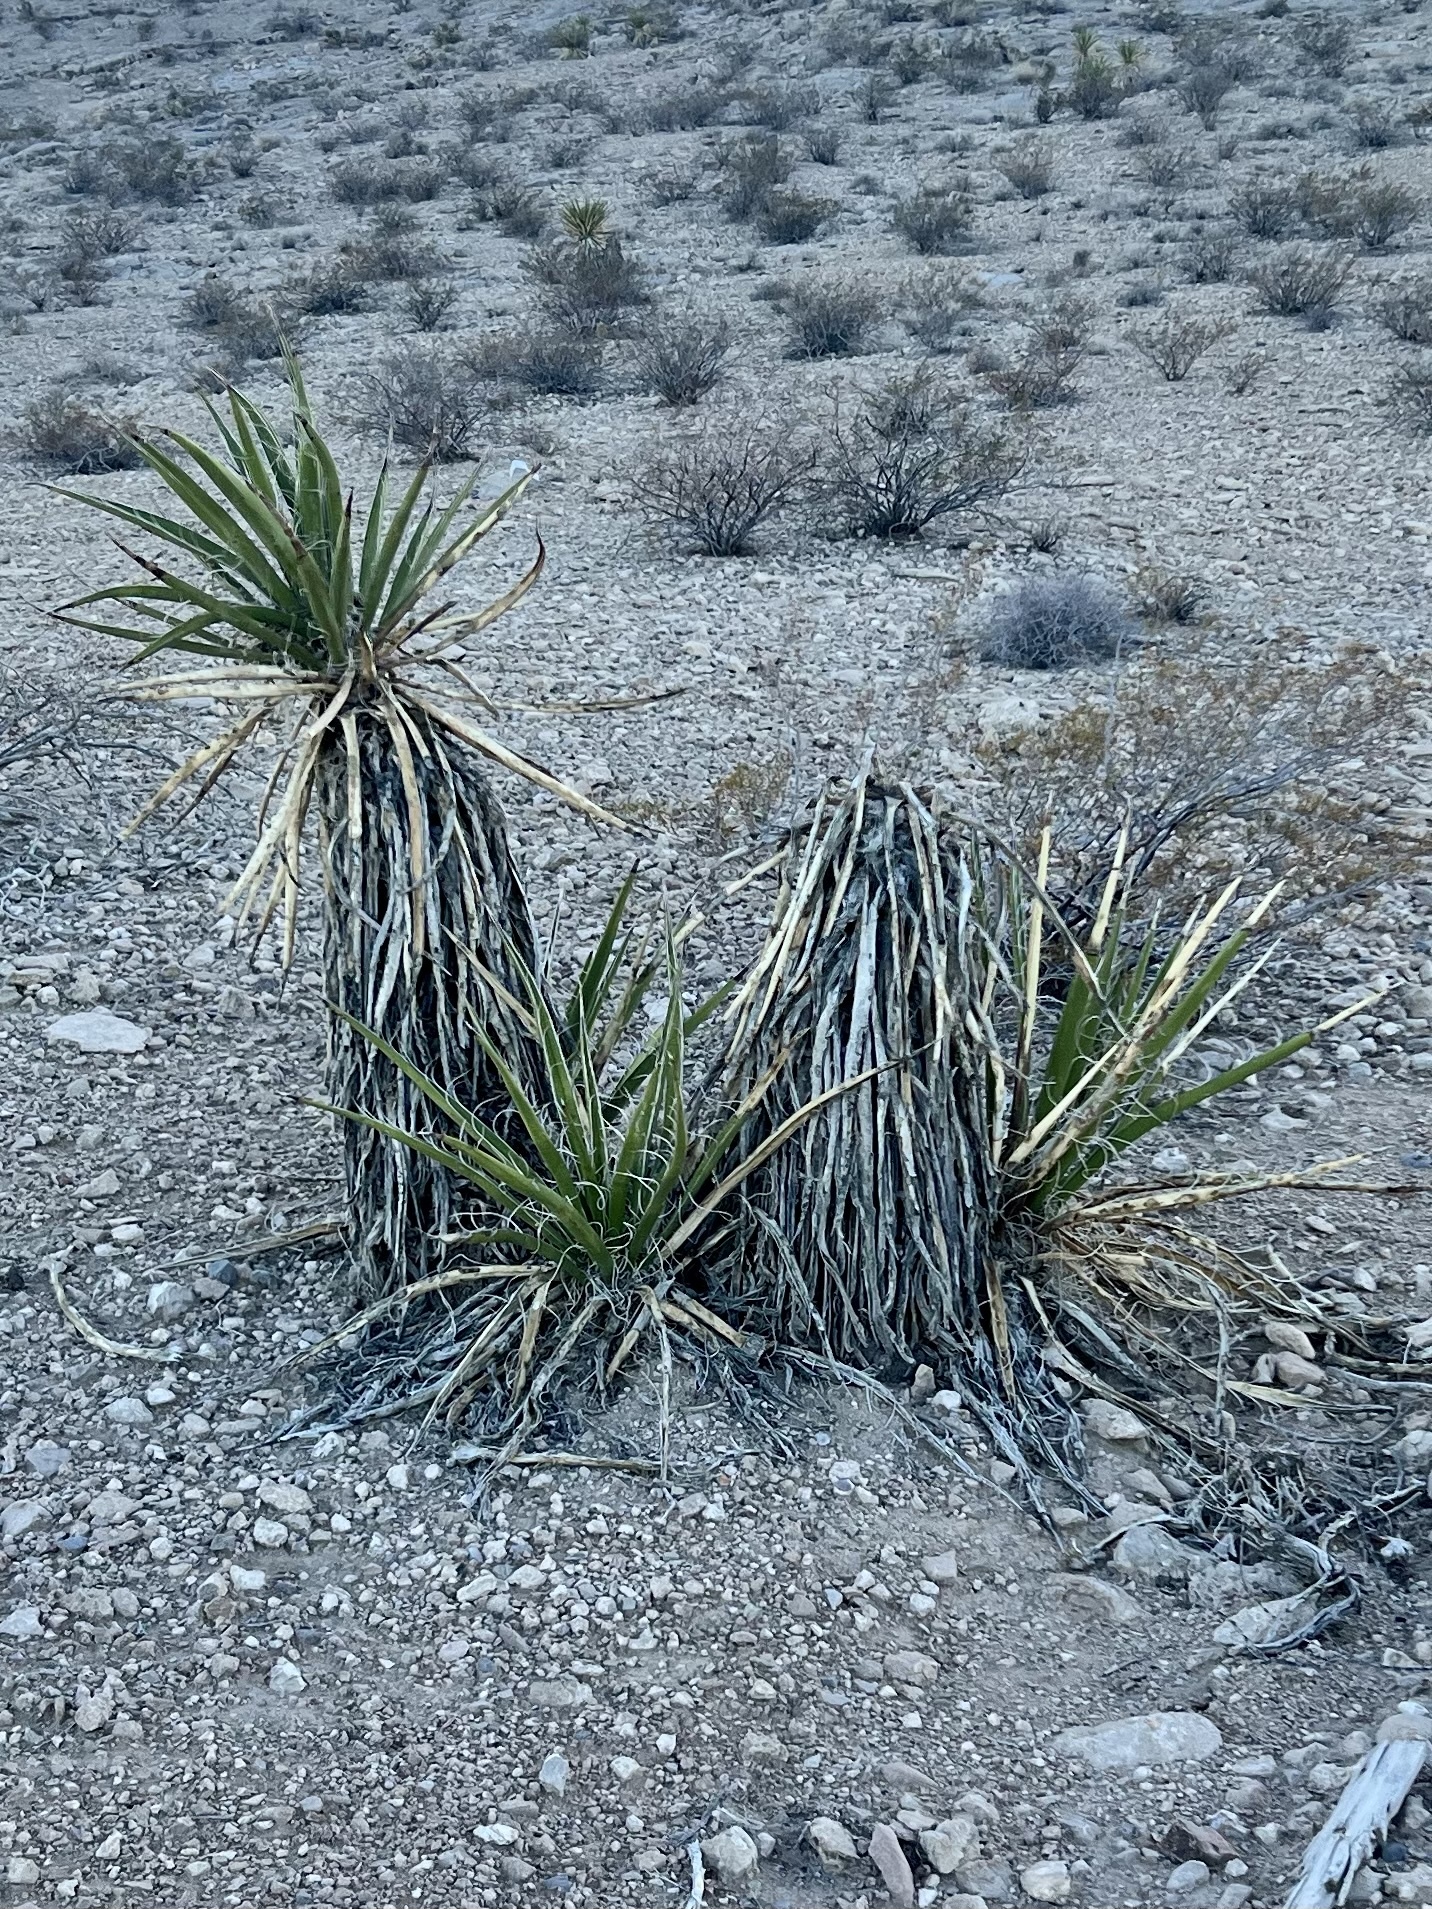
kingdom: Plantae
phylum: Tracheophyta
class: Liliopsida
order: Asparagales
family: Asparagaceae
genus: Yucca
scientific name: Yucca schidigera
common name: Mojave yucca
